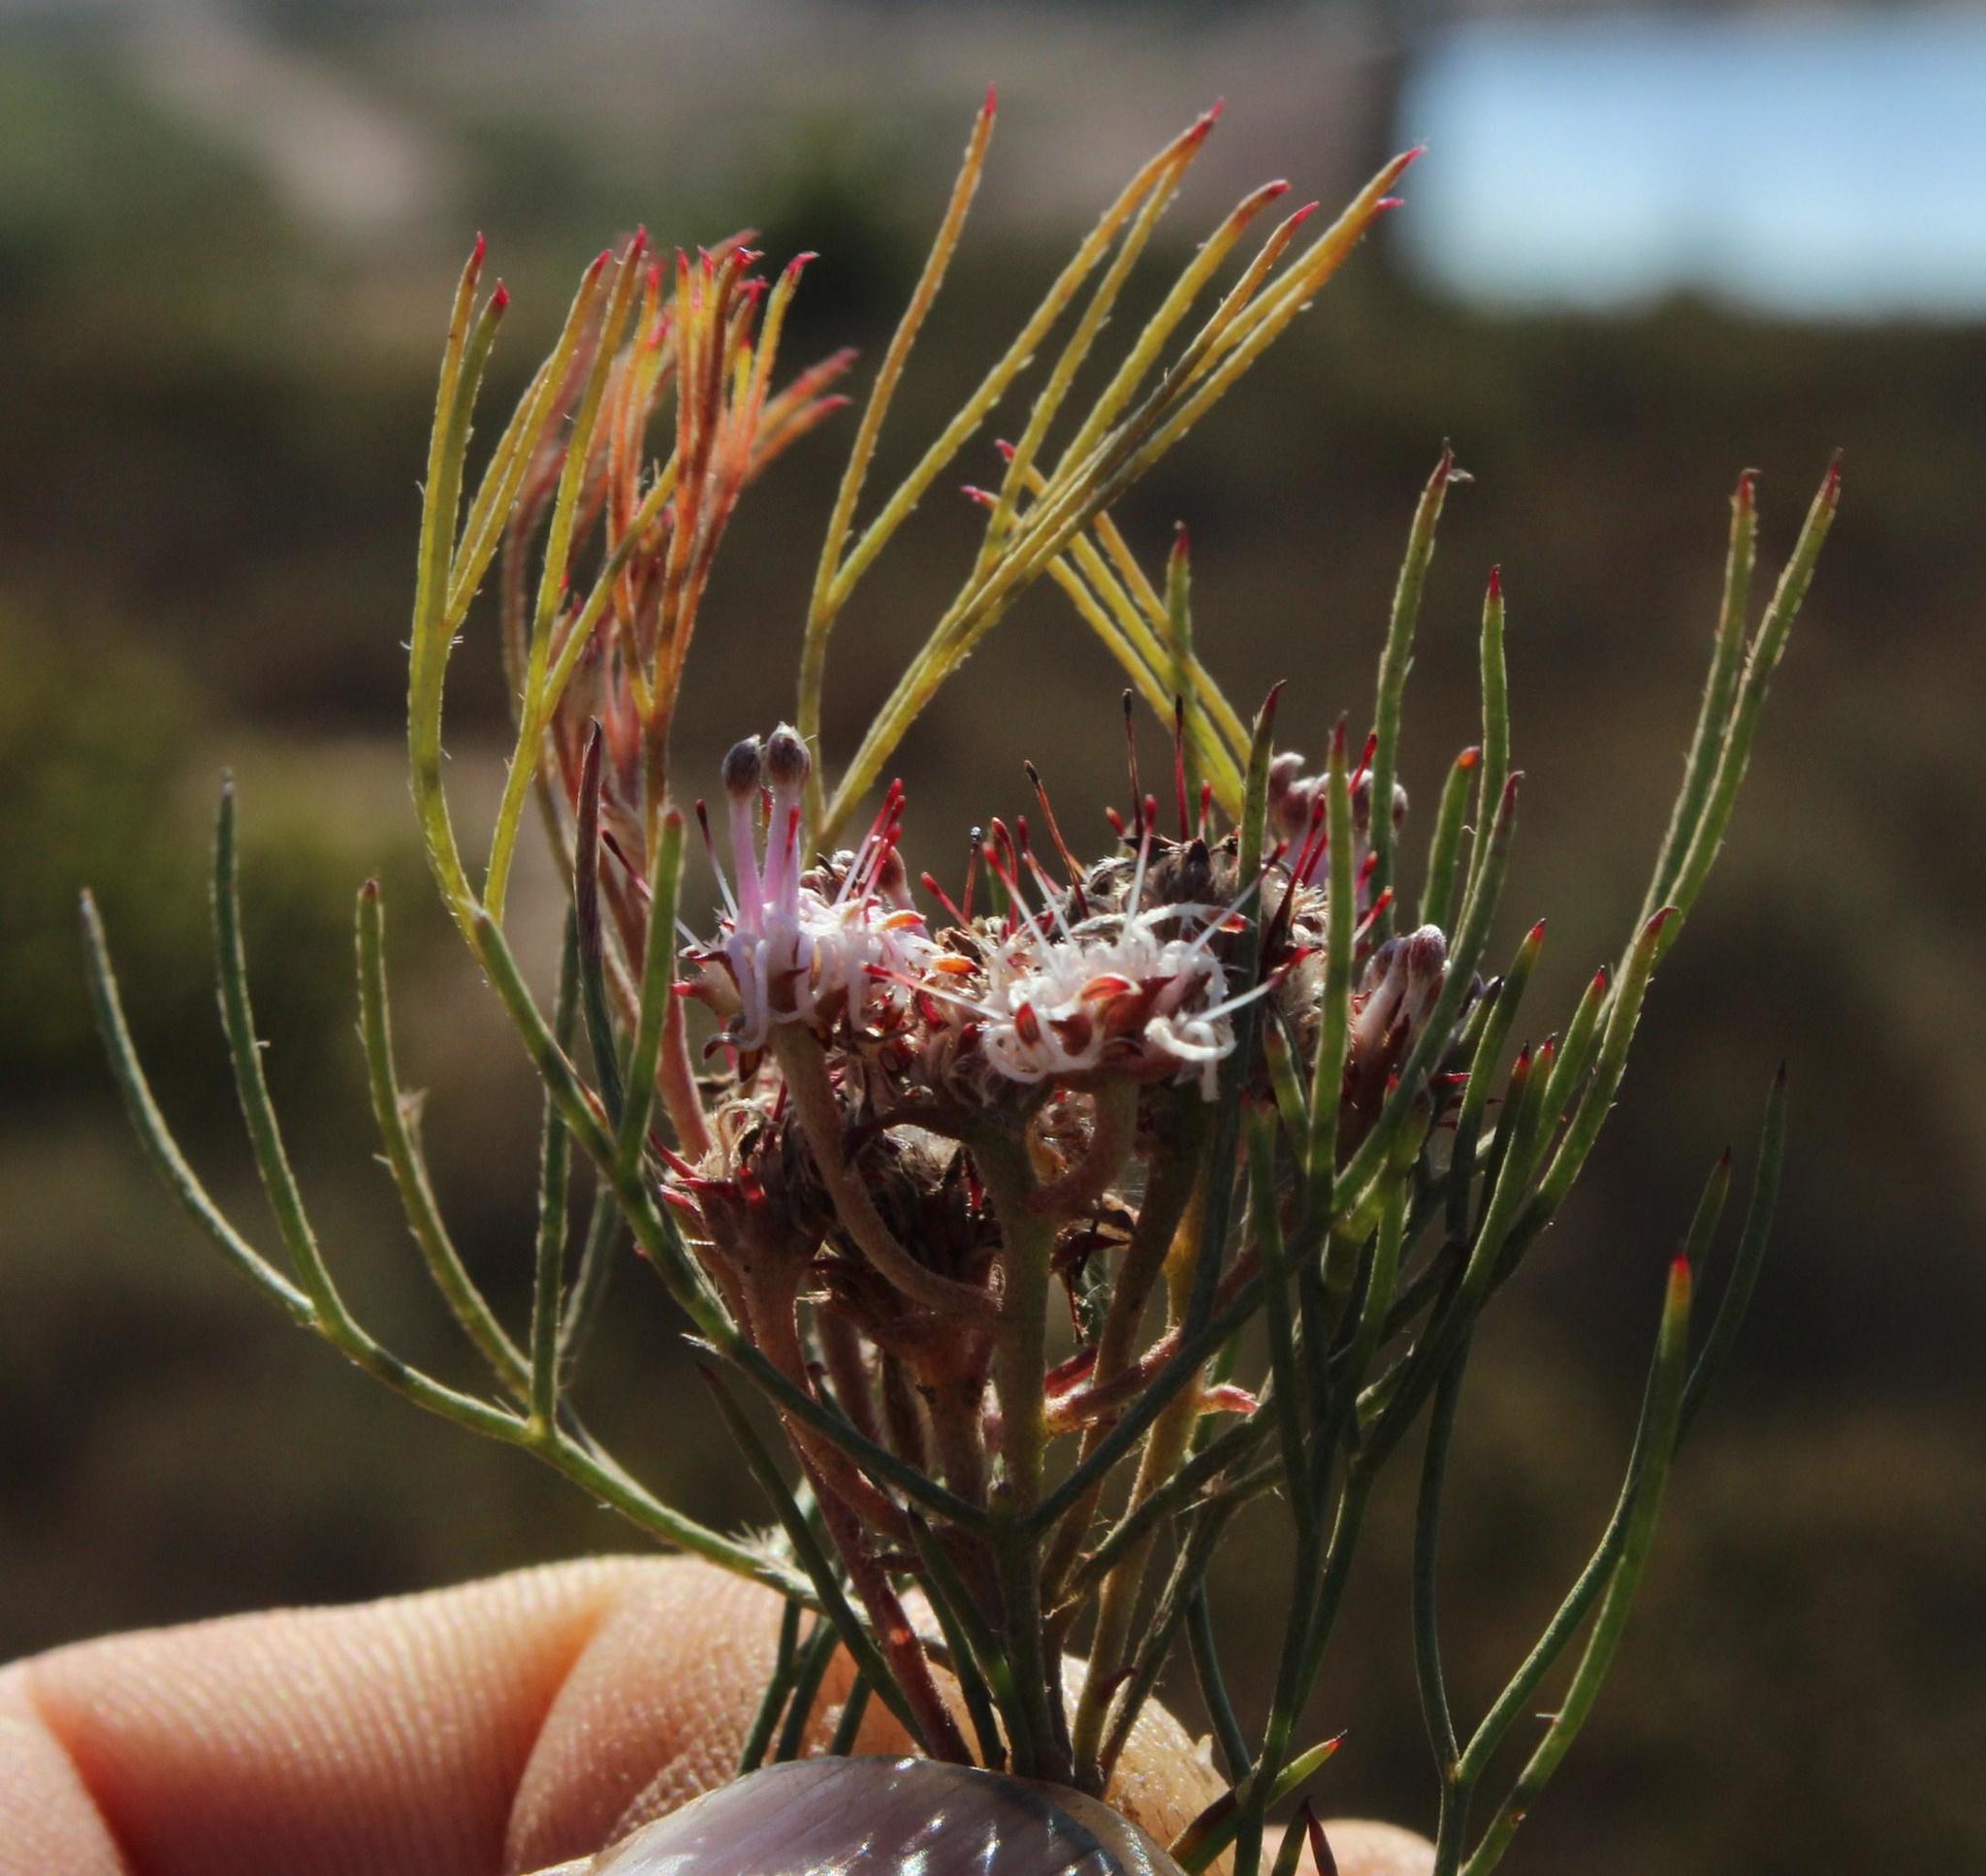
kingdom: Plantae
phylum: Tracheophyta
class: Magnoliopsida
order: Proteales
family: Proteaceae
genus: Serruria
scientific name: Serruria fasciflora
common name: Common pin spiderhead
